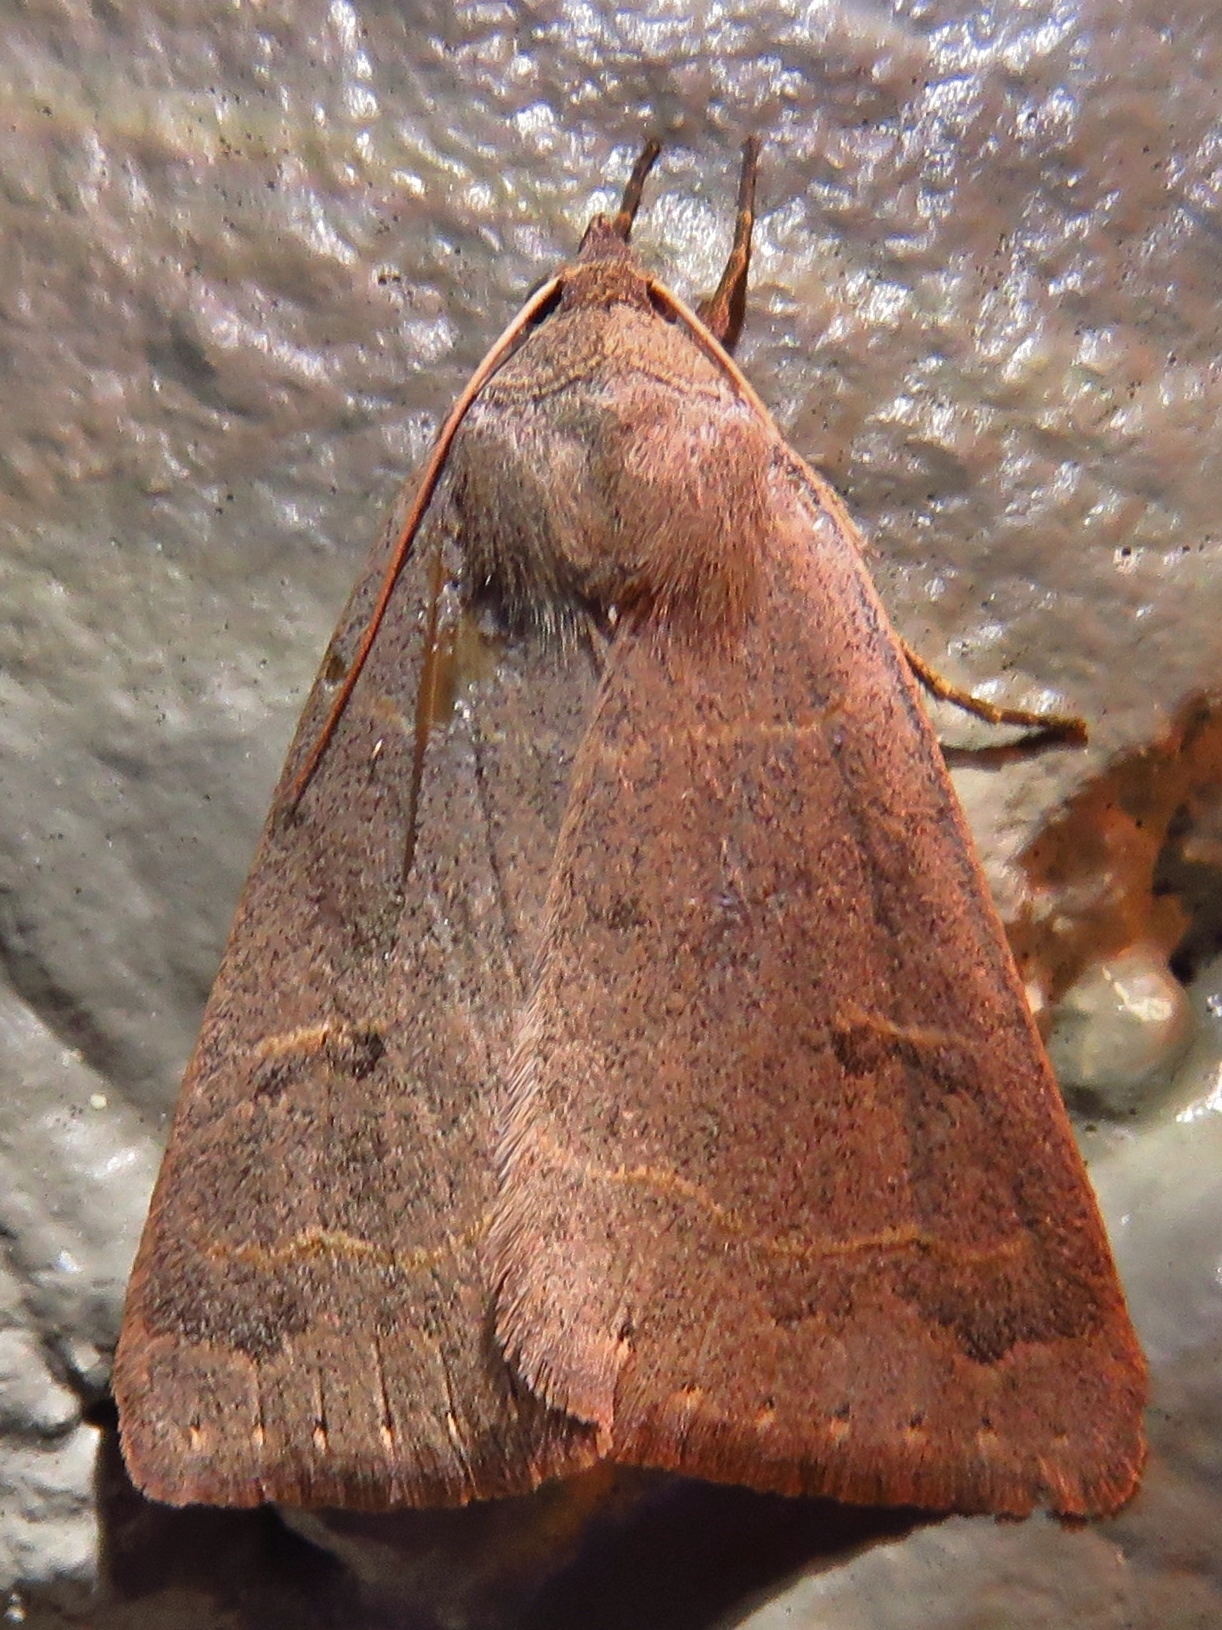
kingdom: Animalia
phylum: Arthropoda
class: Insecta
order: Lepidoptera
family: Erebidae
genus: Phoberia
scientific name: Phoberia atomaris
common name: Common oak moth
